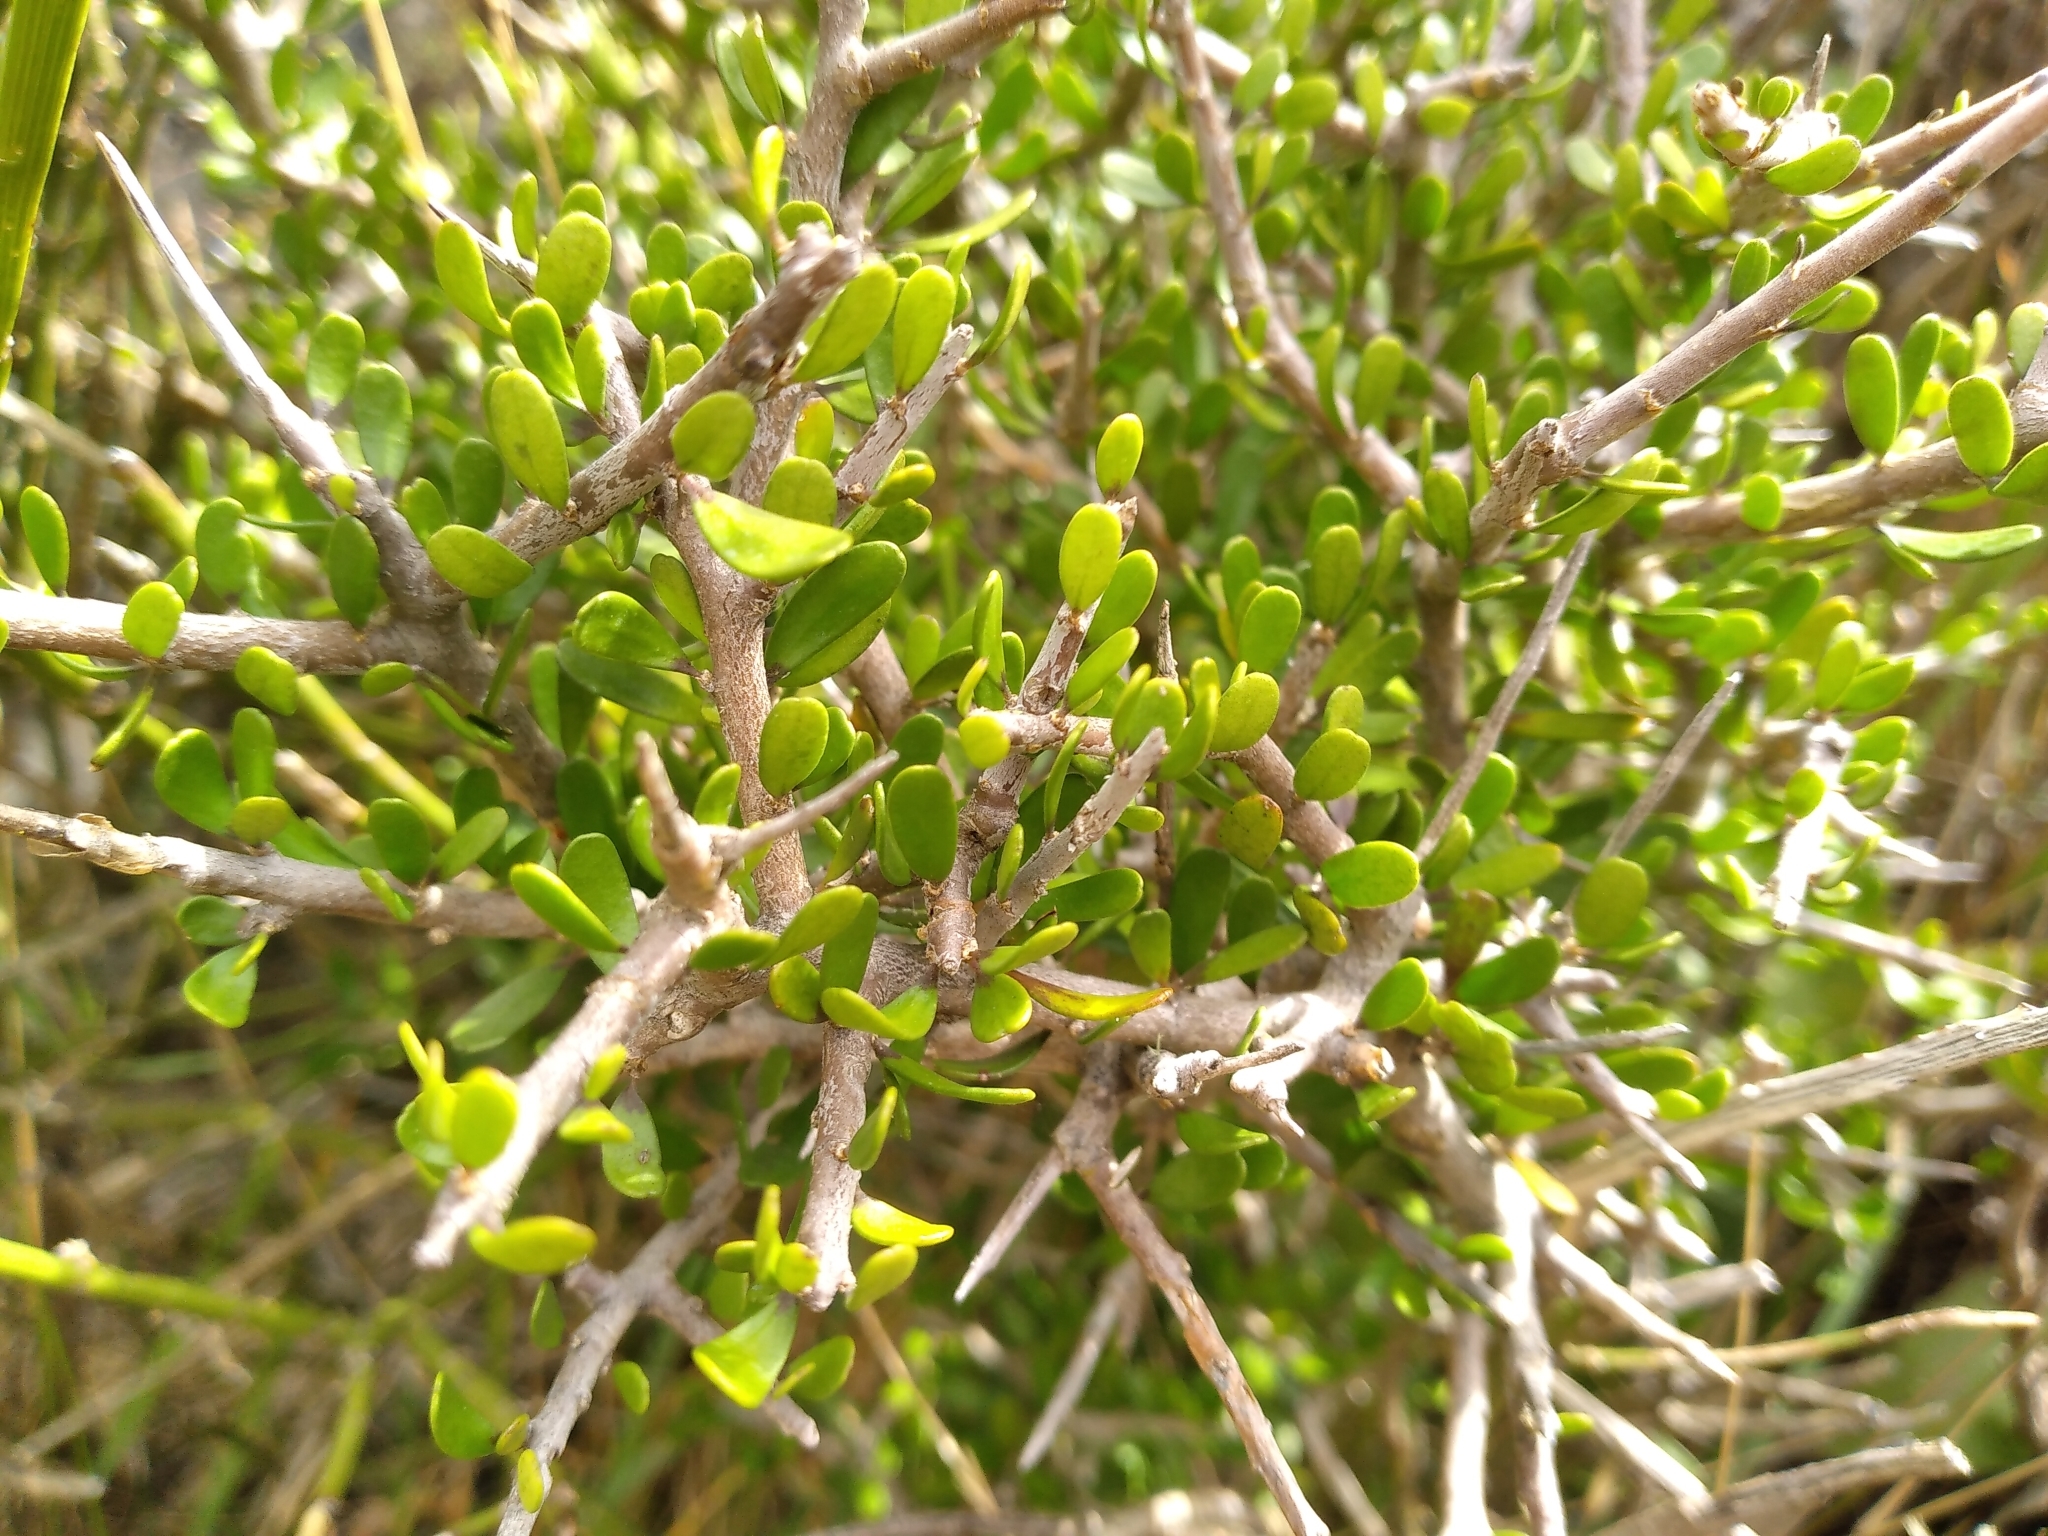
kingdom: Plantae
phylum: Tracheophyta
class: Magnoliopsida
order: Malpighiales
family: Violaceae
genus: Melicytus
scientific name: Melicytus alpinus
